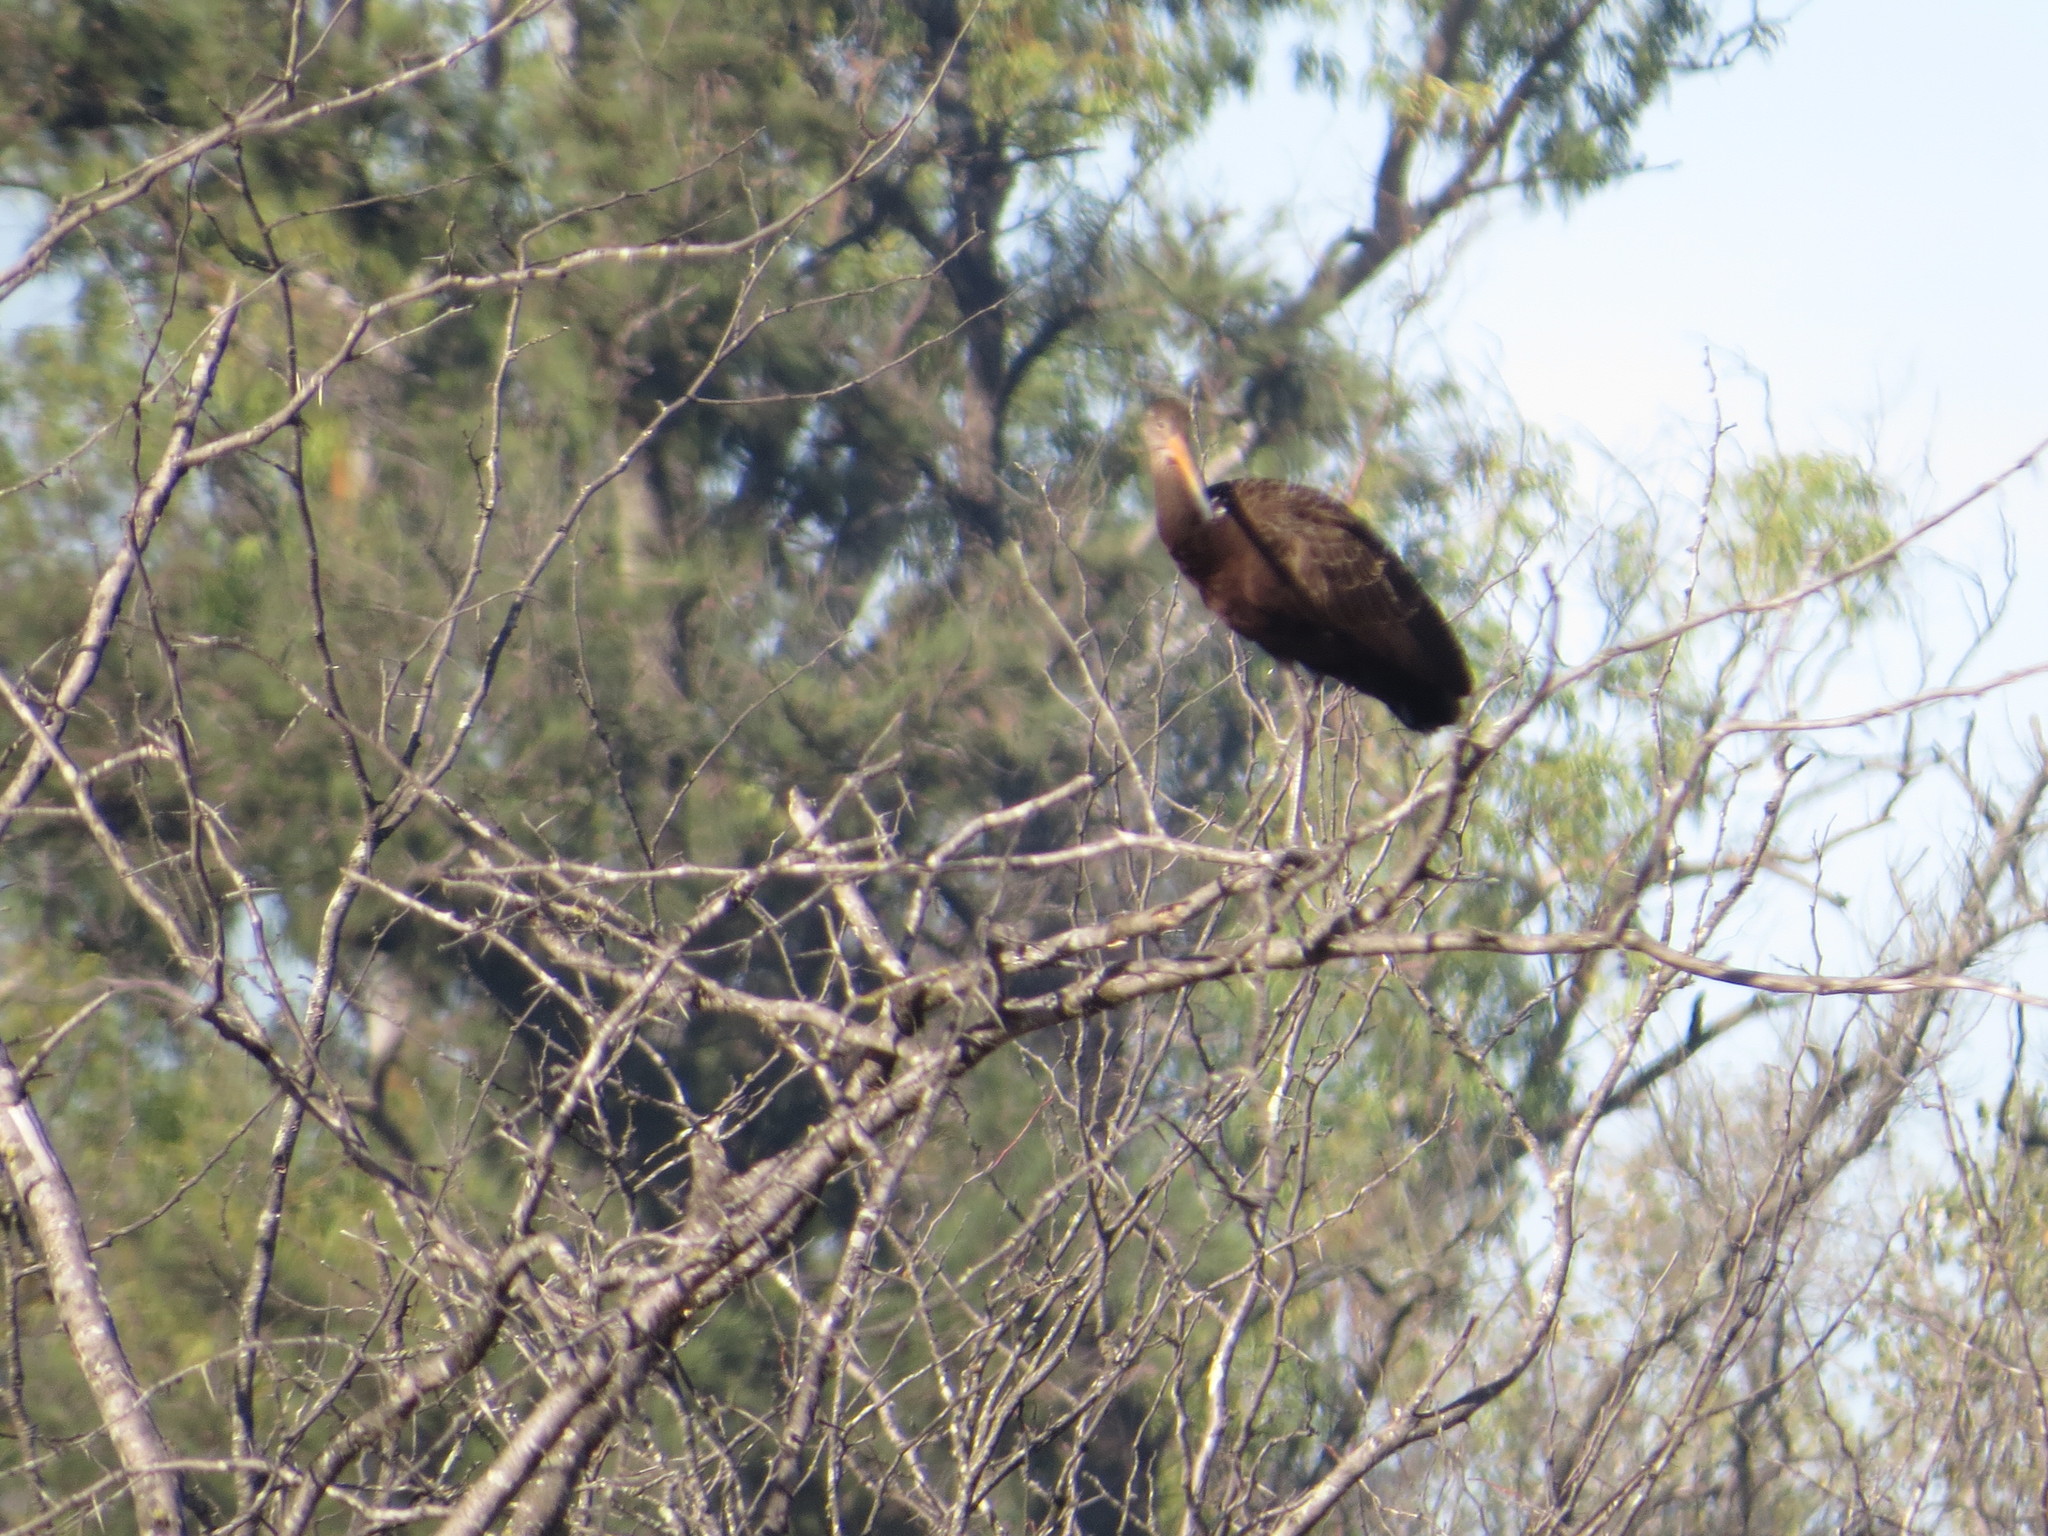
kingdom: Animalia
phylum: Chordata
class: Aves
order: Gruiformes
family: Aramidae
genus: Aramus
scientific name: Aramus guarauna
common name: Limpkin
